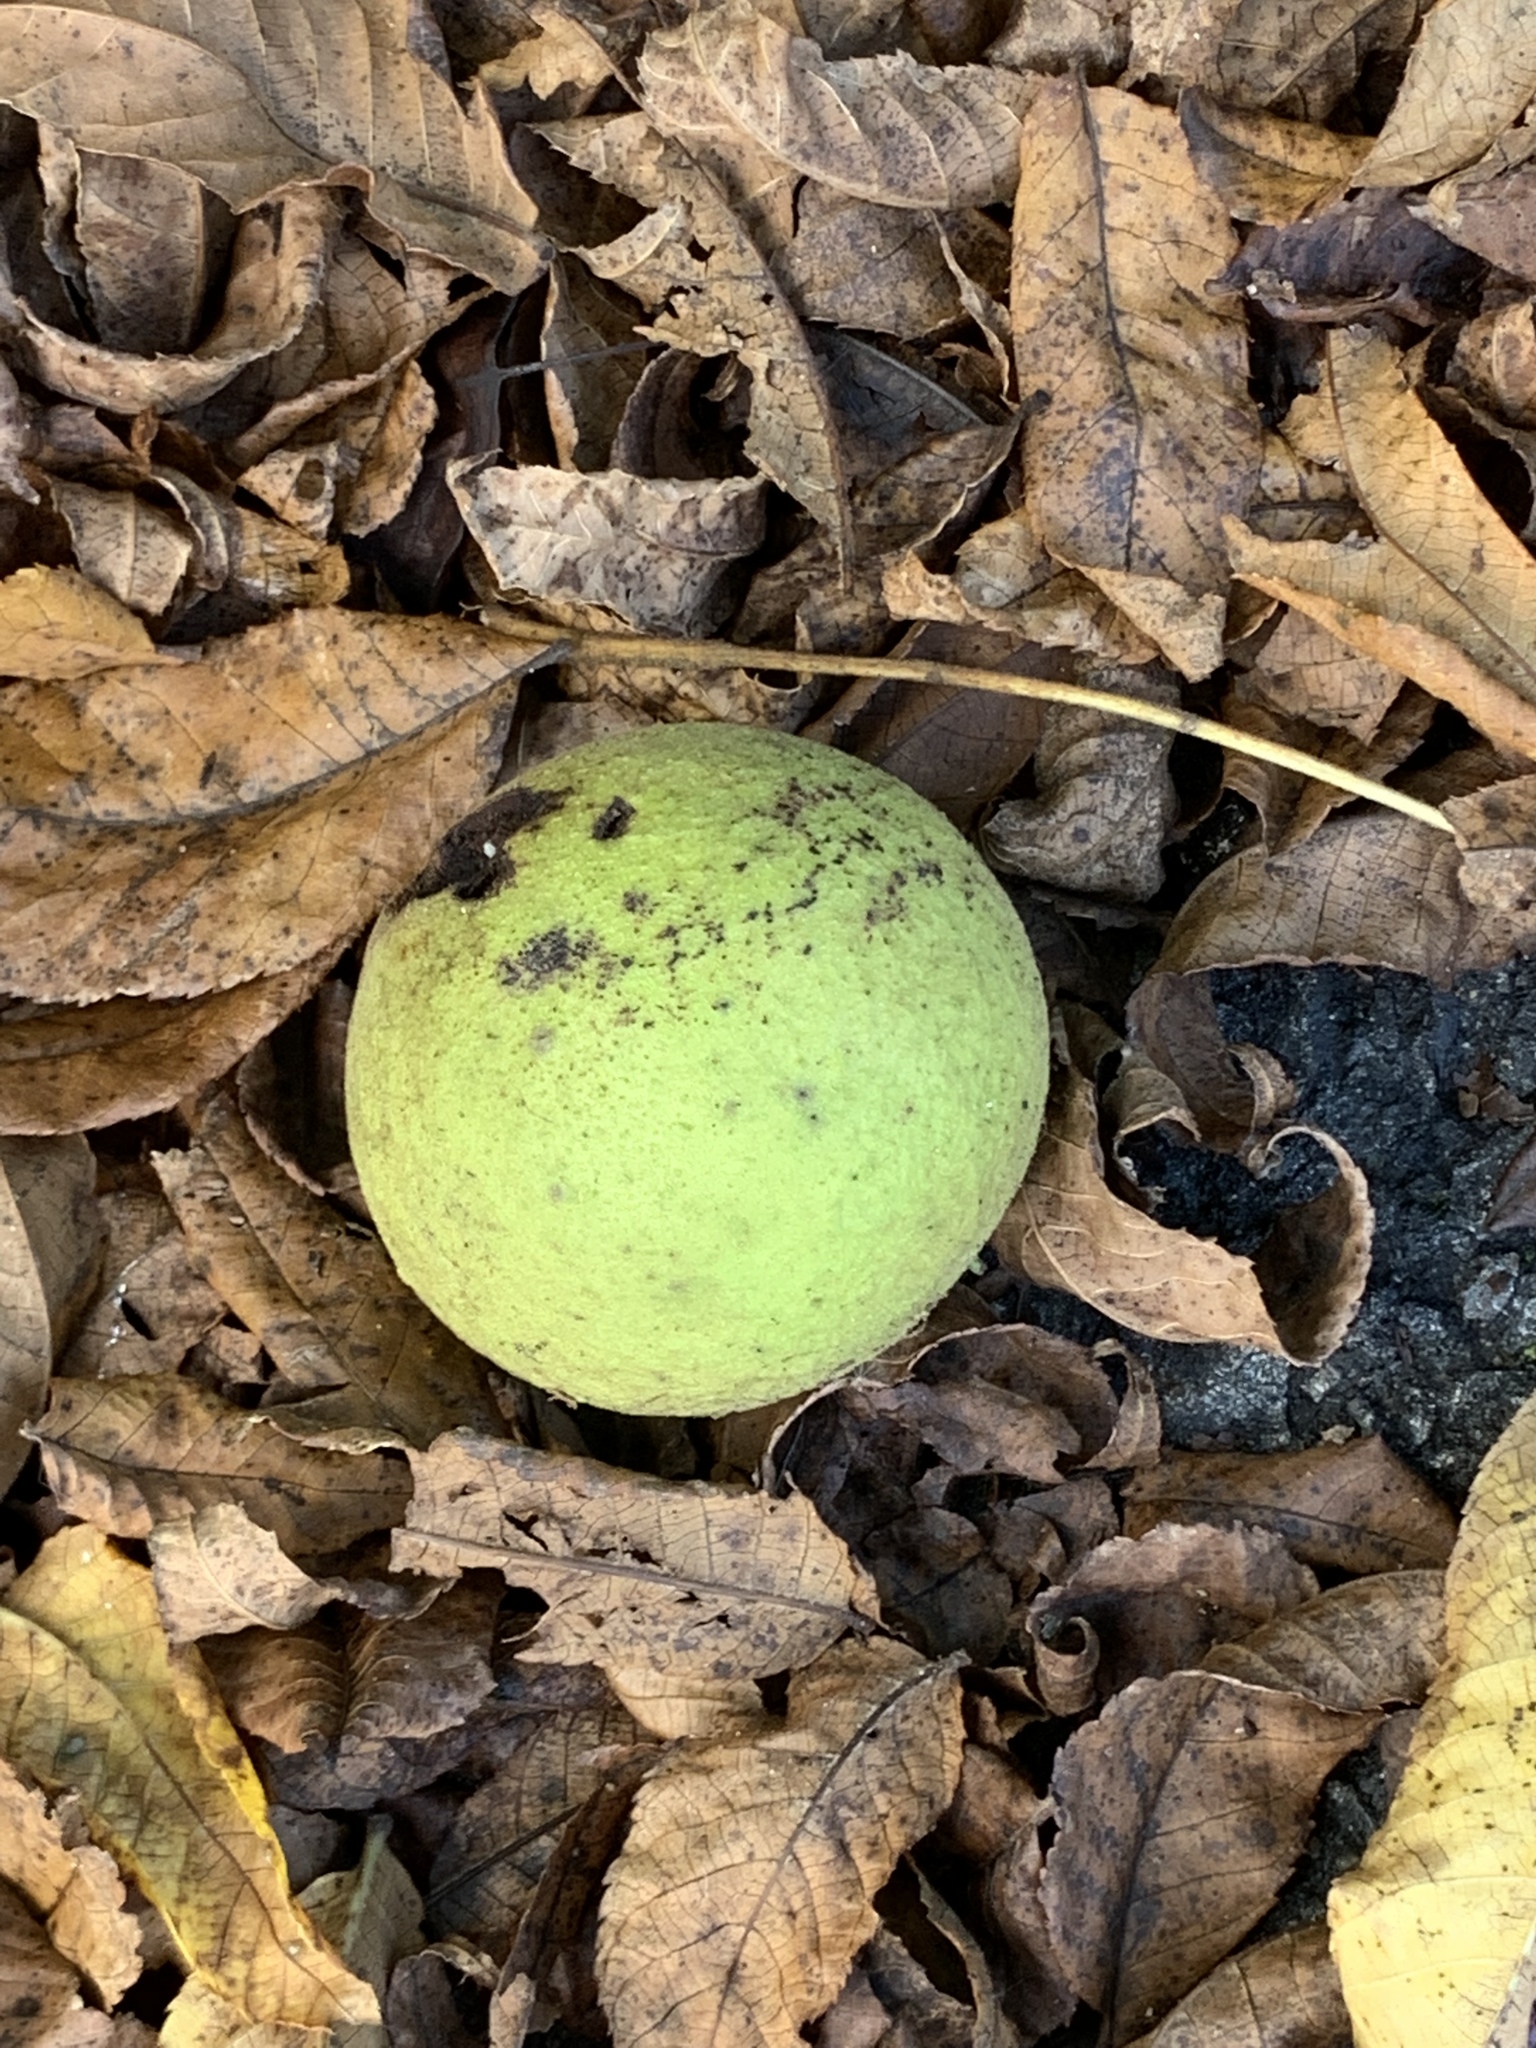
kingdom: Plantae
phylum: Tracheophyta
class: Magnoliopsida
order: Fagales
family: Juglandaceae
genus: Juglans
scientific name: Juglans nigra
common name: Black walnut
